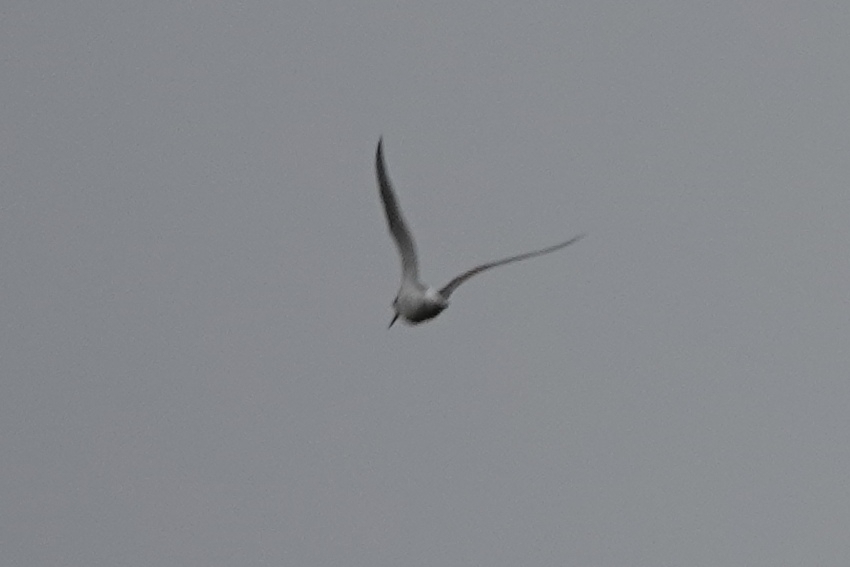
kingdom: Animalia
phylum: Chordata
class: Aves
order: Charadriiformes
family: Scolopacidae
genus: Tringa
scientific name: Tringa nebularia
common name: Common greenshank
